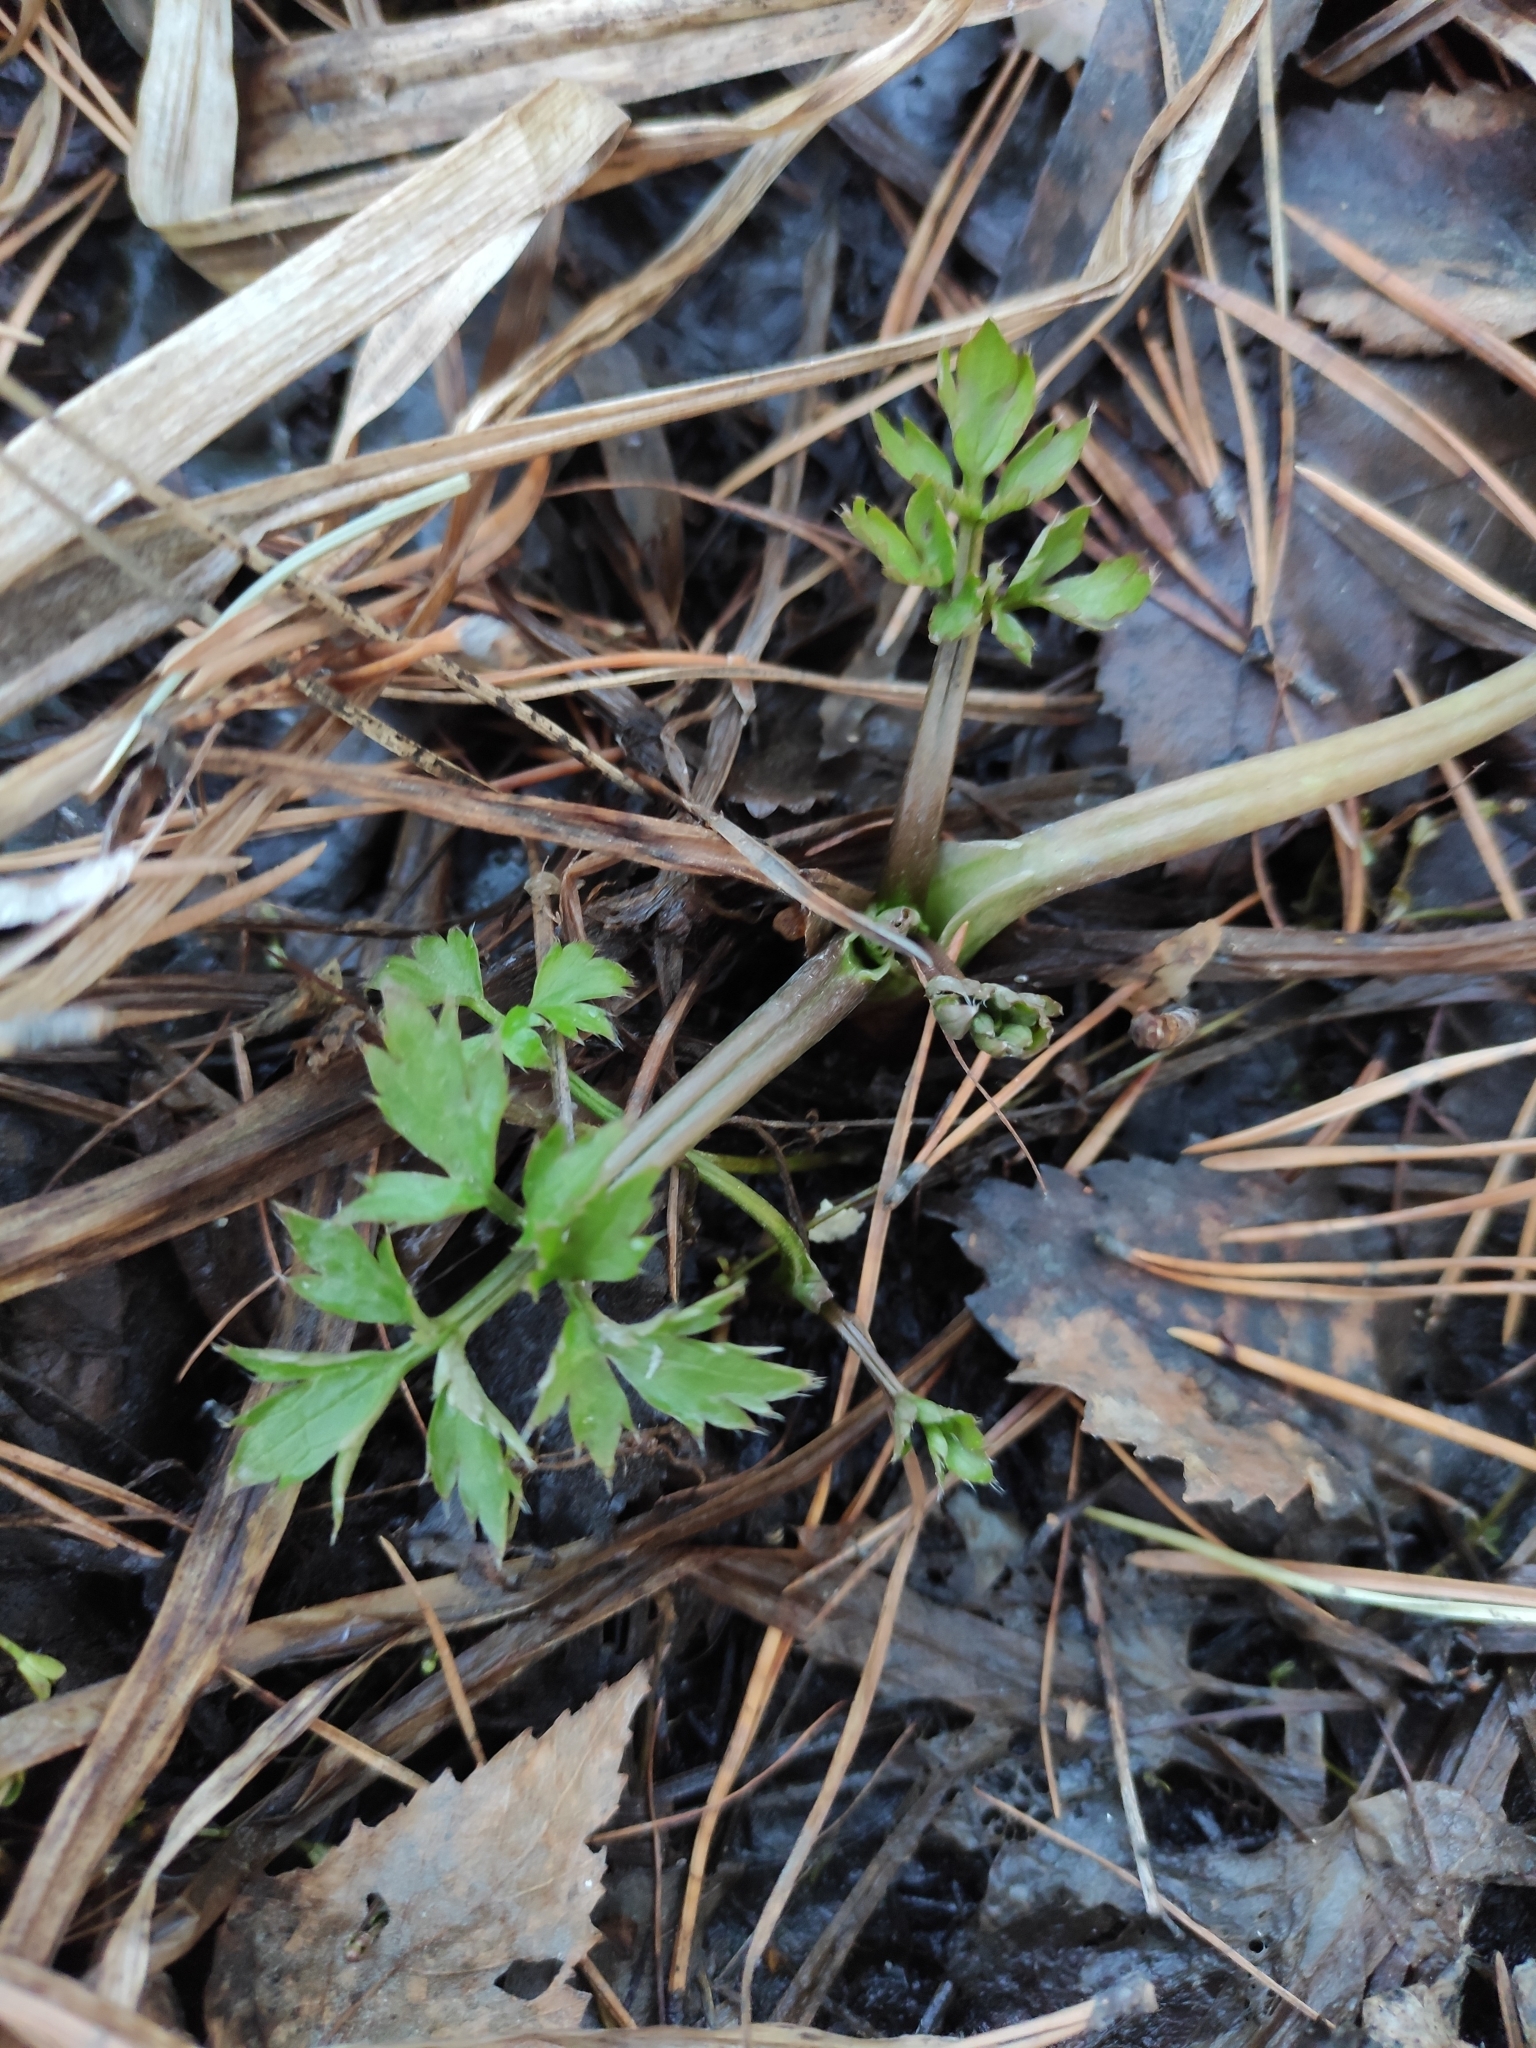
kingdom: Plantae
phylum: Tracheophyta
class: Magnoliopsida
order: Ranunculales
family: Ranunculaceae
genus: Ranunculus
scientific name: Ranunculus repens
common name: Creeping buttercup
